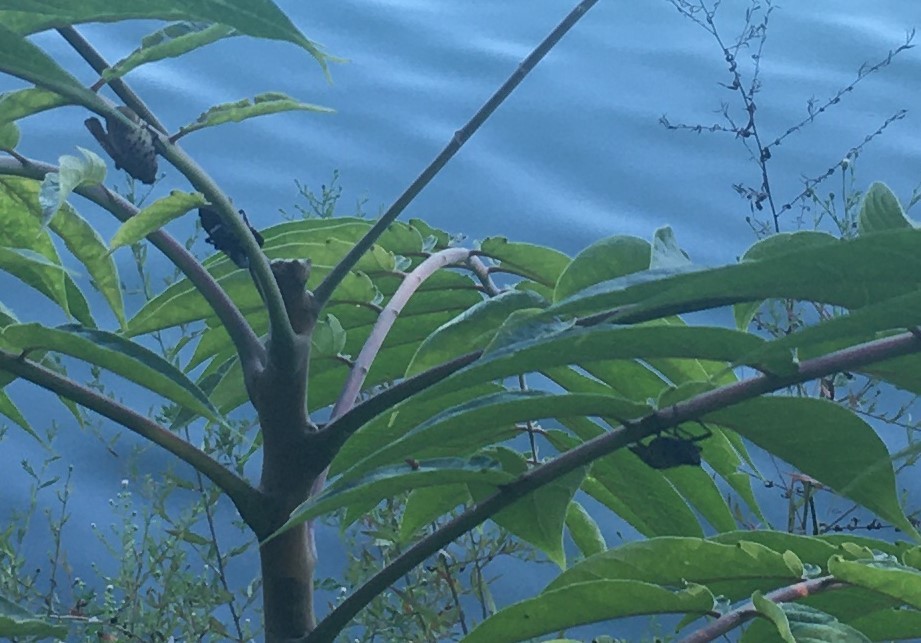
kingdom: Animalia
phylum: Arthropoda
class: Insecta
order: Hemiptera
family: Fulgoridae
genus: Lycorma
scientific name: Lycorma delicatula
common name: Spotted lanternfly
